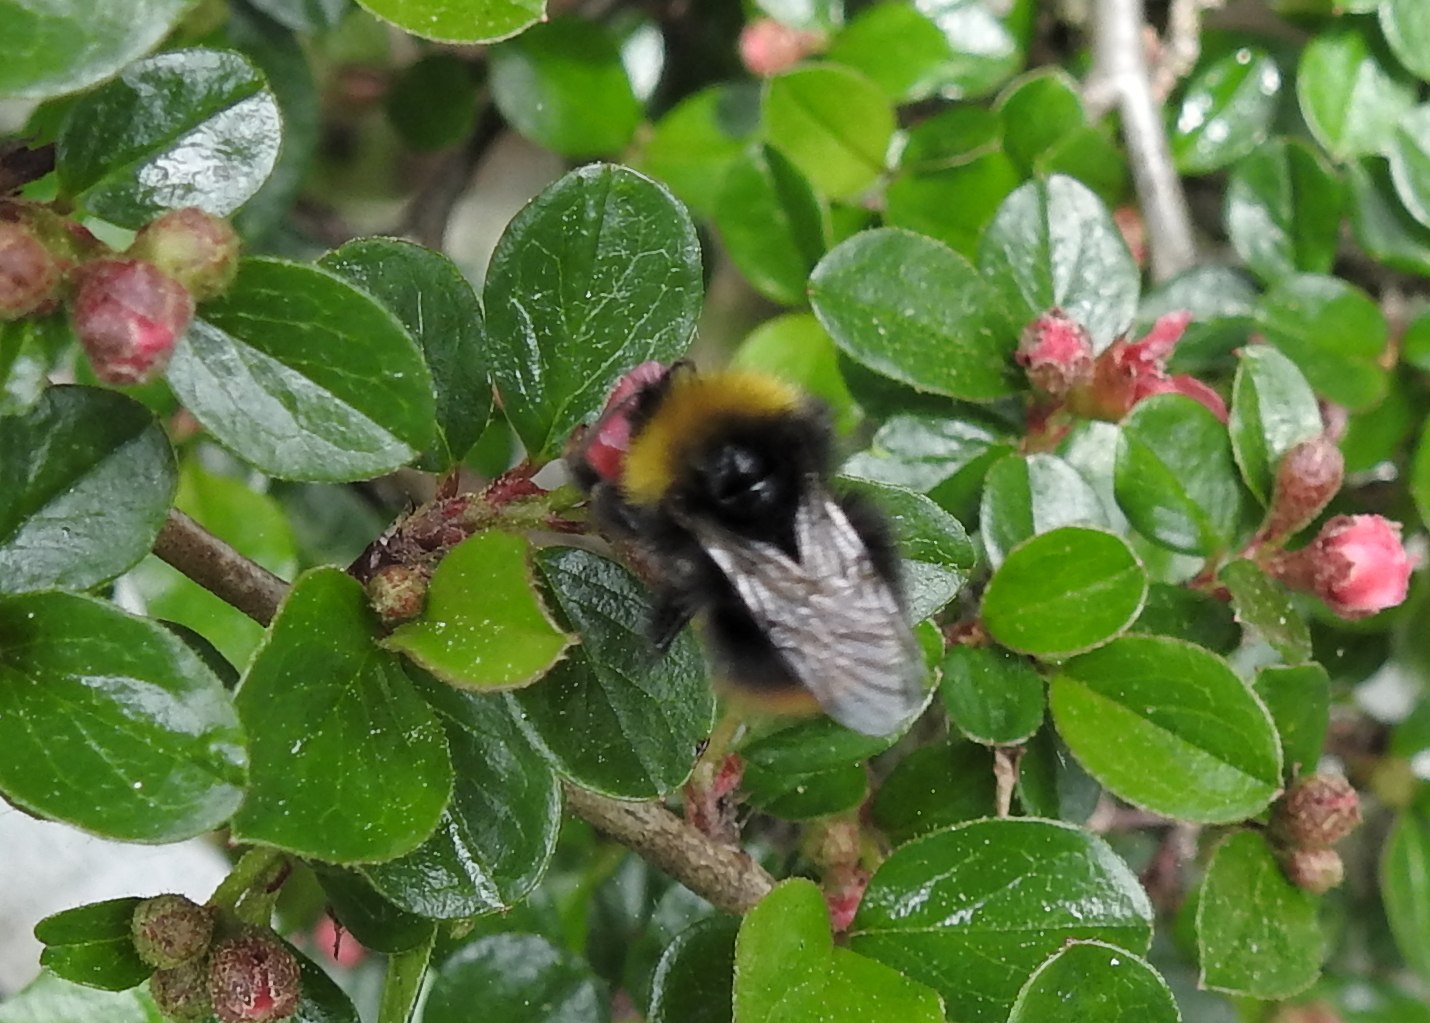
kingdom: Animalia
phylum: Arthropoda
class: Insecta
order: Hymenoptera
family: Apidae
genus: Bombus
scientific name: Bombus pratorum
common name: Early humble-bee
